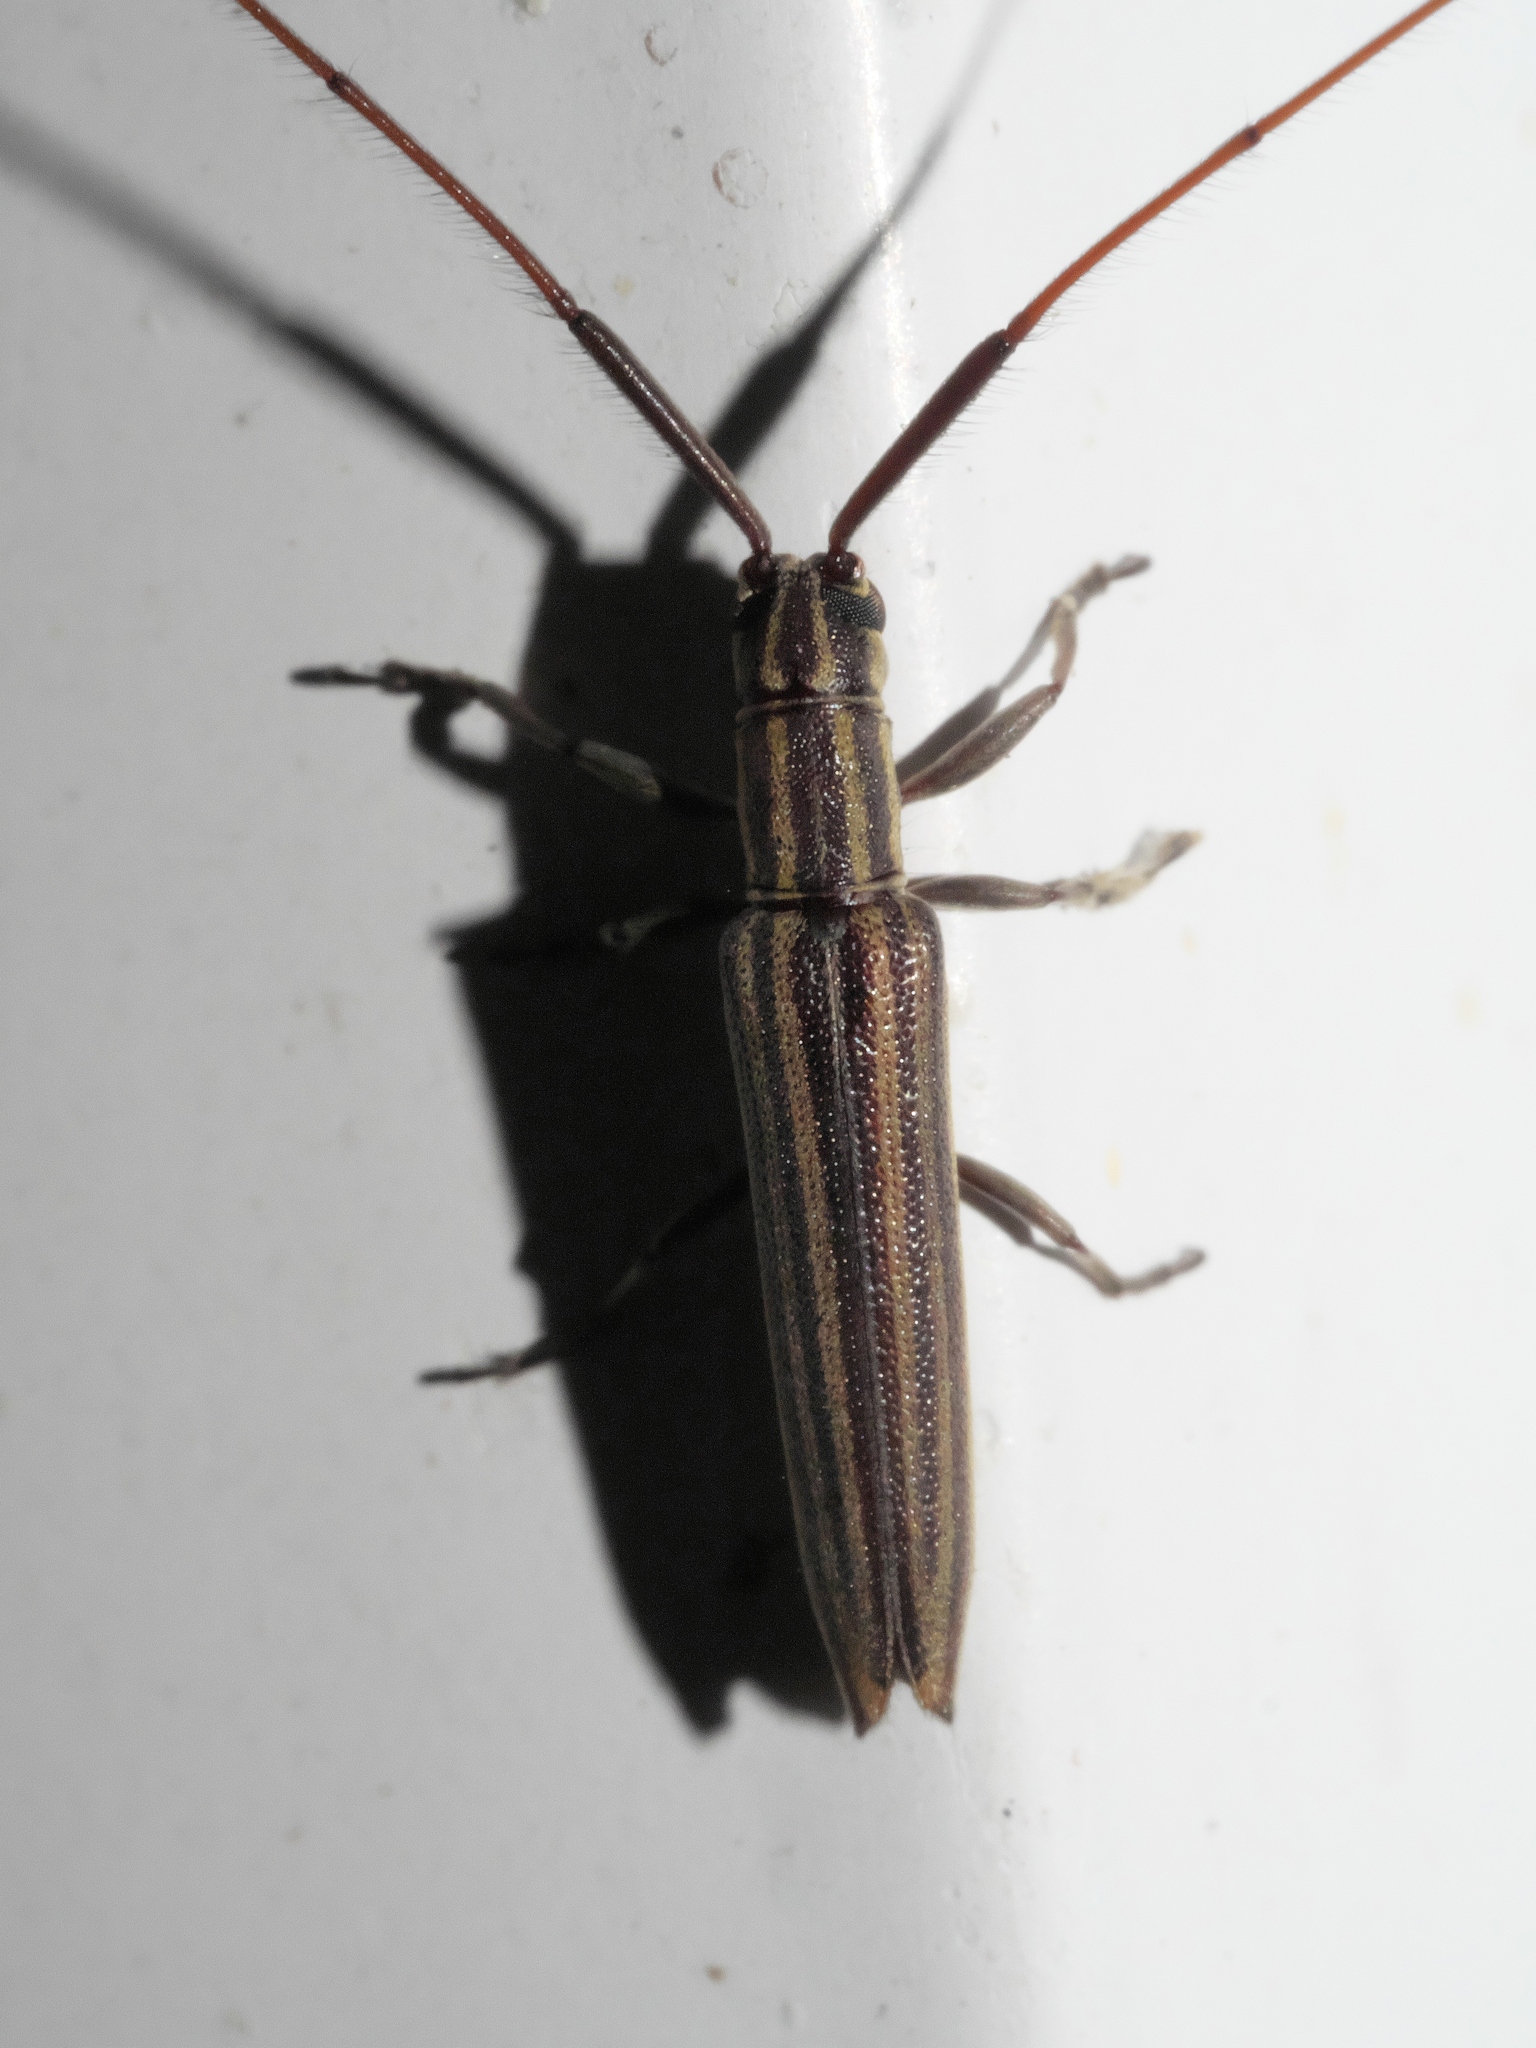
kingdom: Animalia
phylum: Arthropoda
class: Insecta
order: Coleoptera
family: Cerambycidae
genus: Hippopsis
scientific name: Hippopsis
